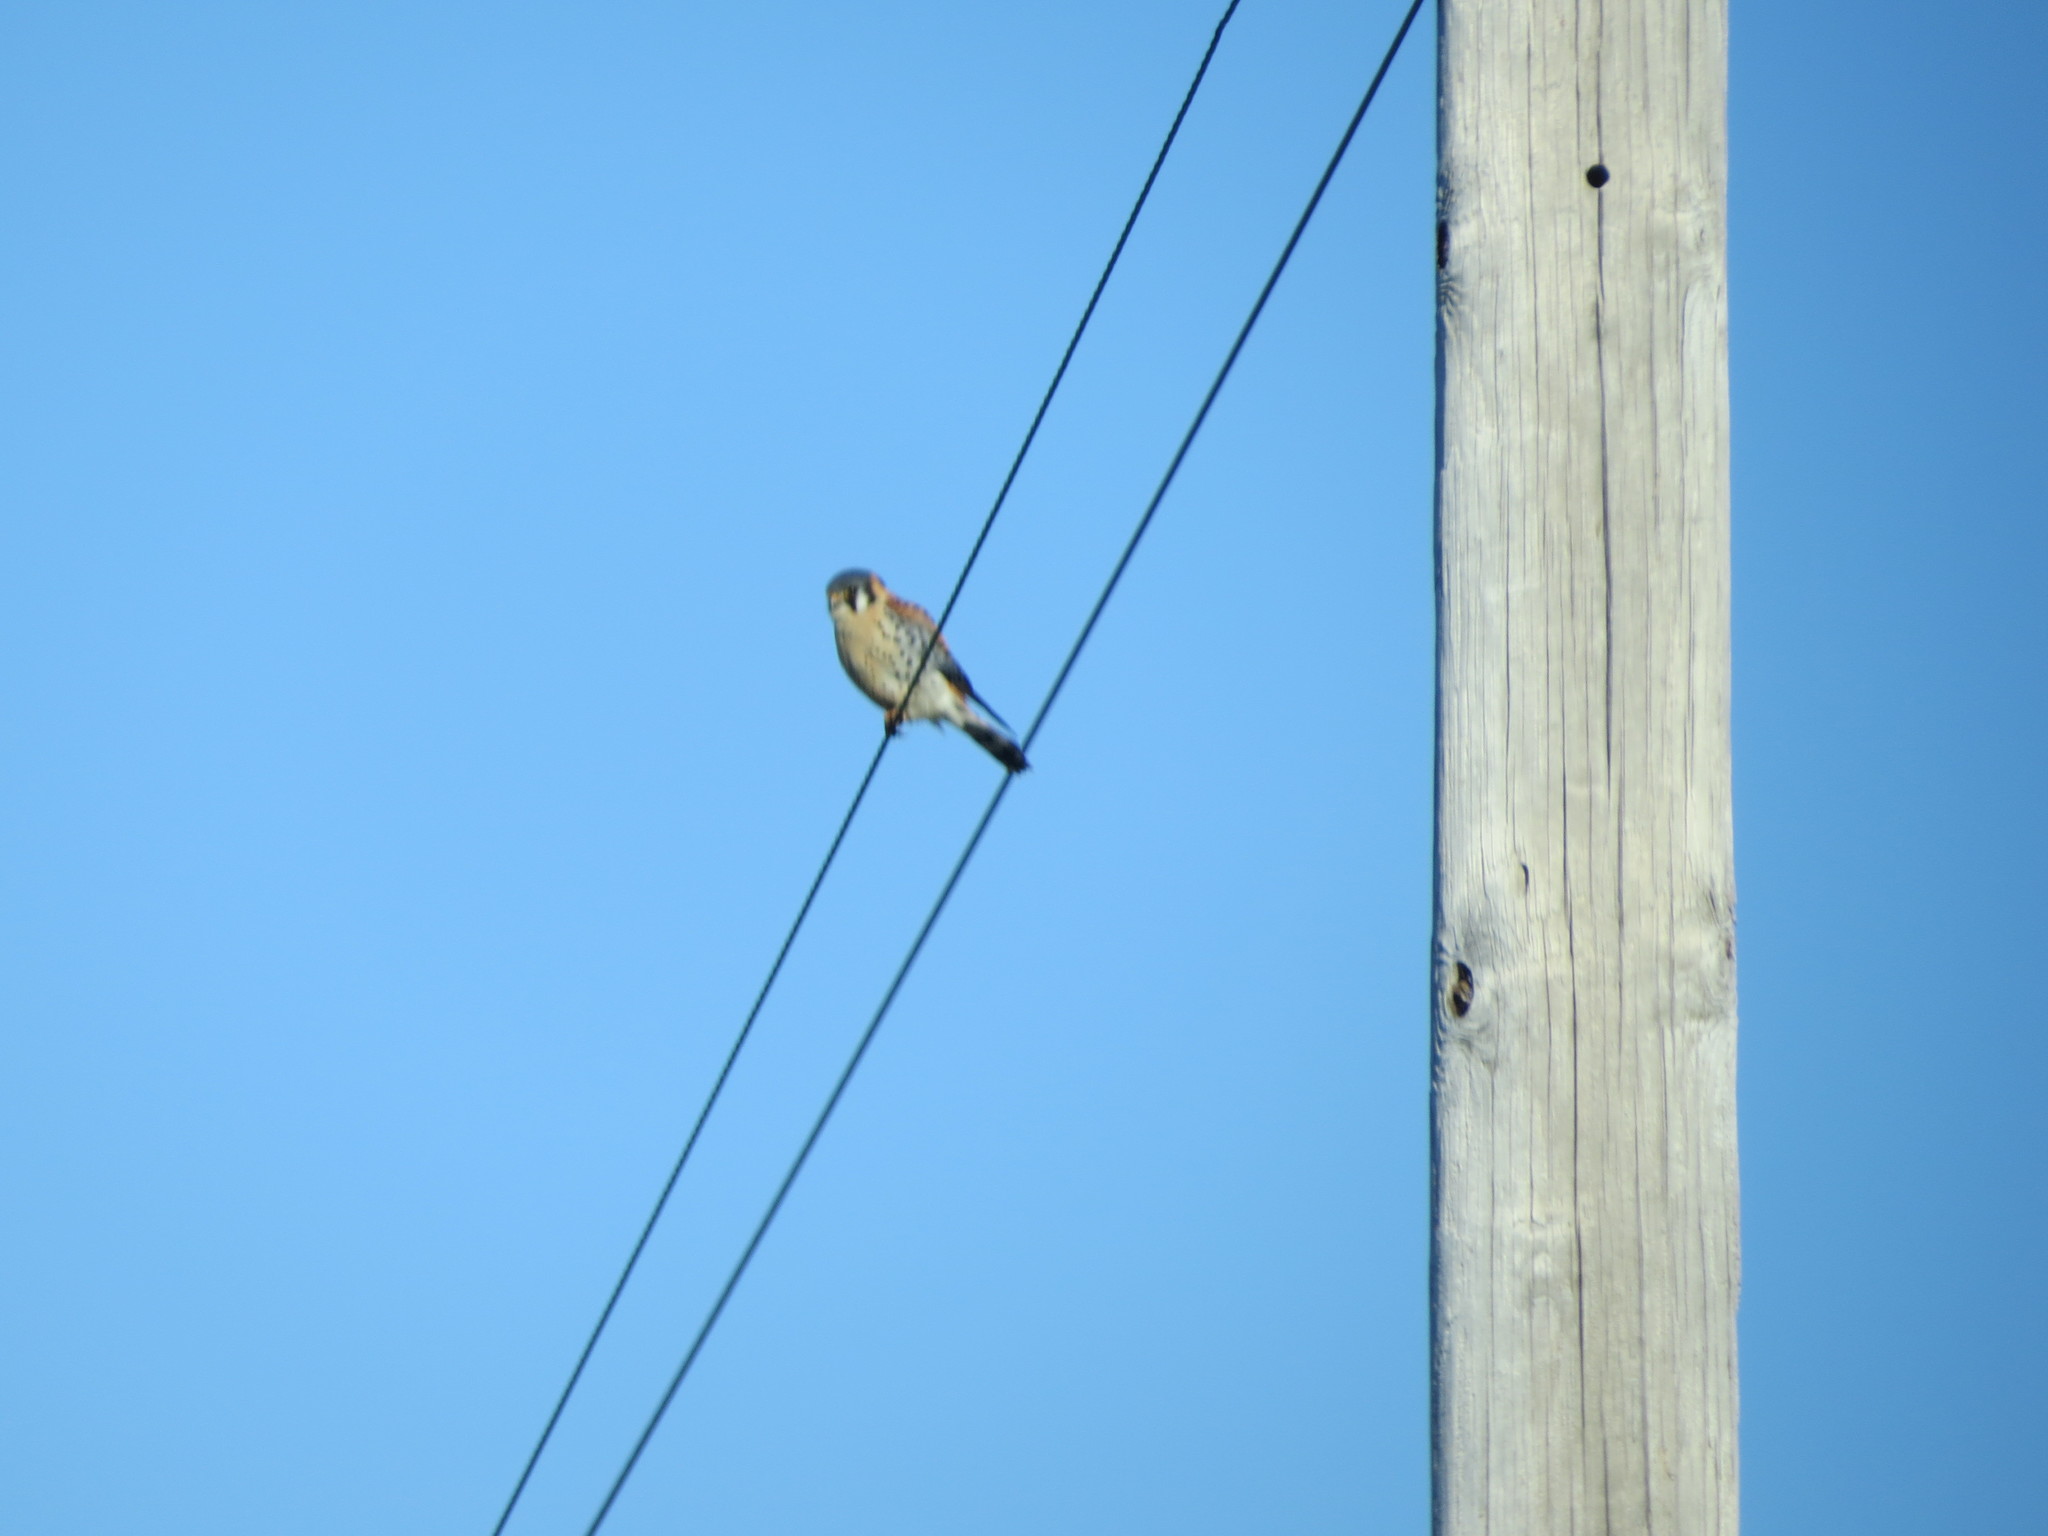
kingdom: Animalia
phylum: Chordata
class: Aves
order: Falconiformes
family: Falconidae
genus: Falco
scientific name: Falco sparverius
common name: American kestrel
